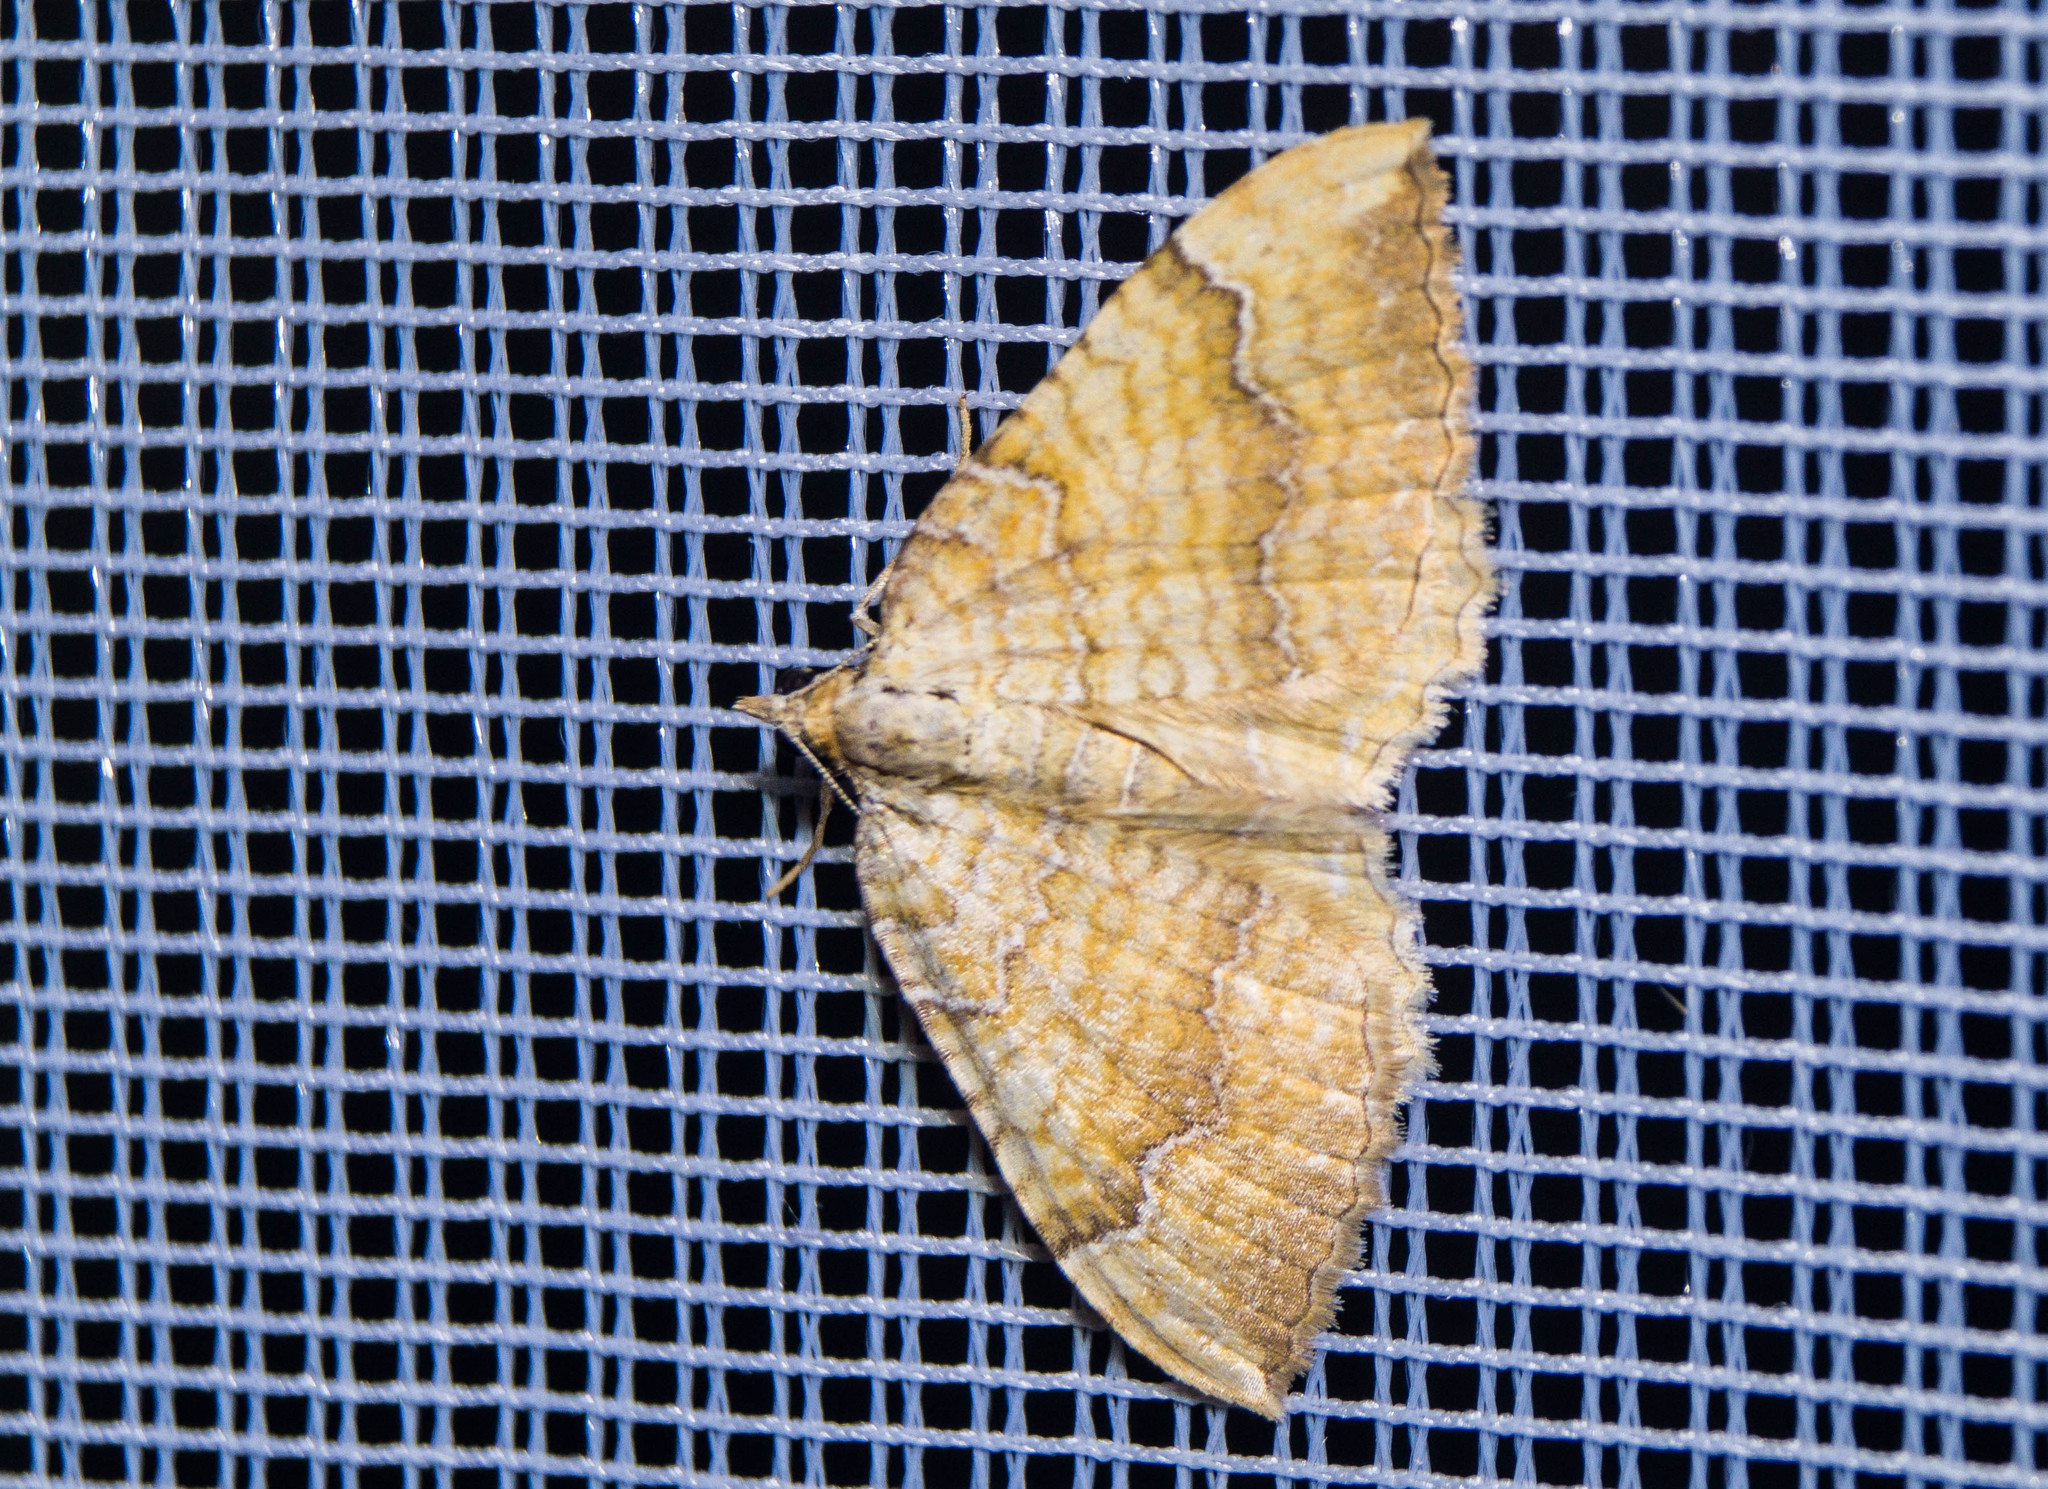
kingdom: Animalia
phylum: Arthropoda
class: Insecta
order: Lepidoptera
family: Geometridae
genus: Camptogramma
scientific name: Camptogramma bilineata
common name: Yellow shell
